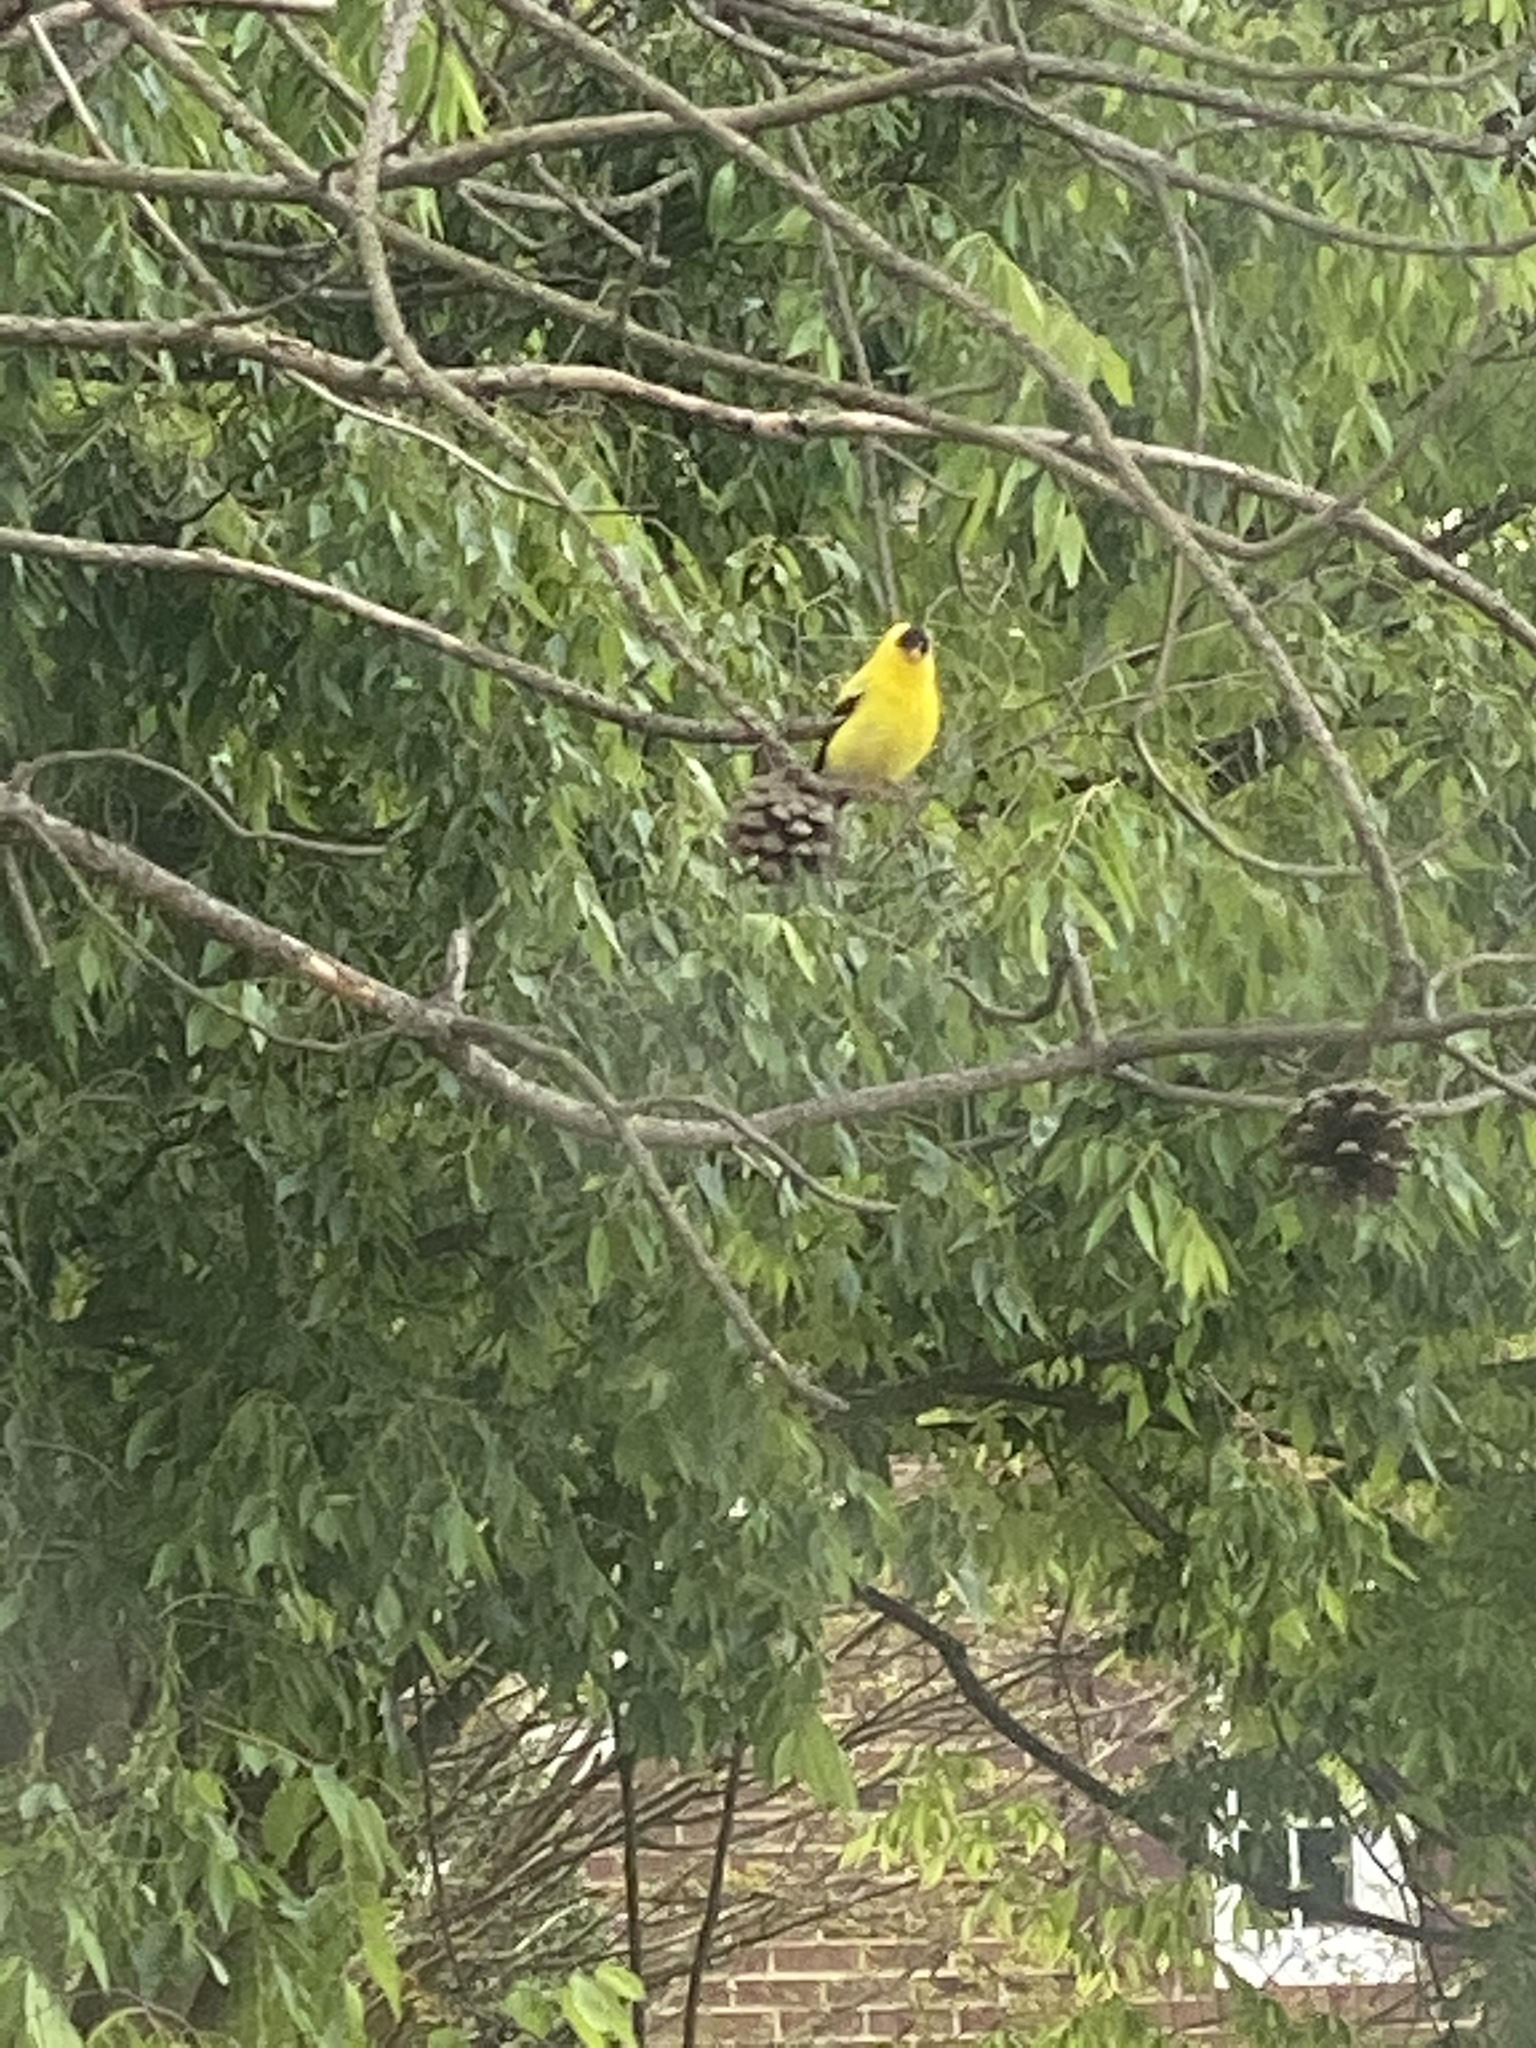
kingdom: Animalia
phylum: Chordata
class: Aves
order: Passeriformes
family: Fringillidae
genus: Spinus
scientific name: Spinus tristis
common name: American goldfinch
